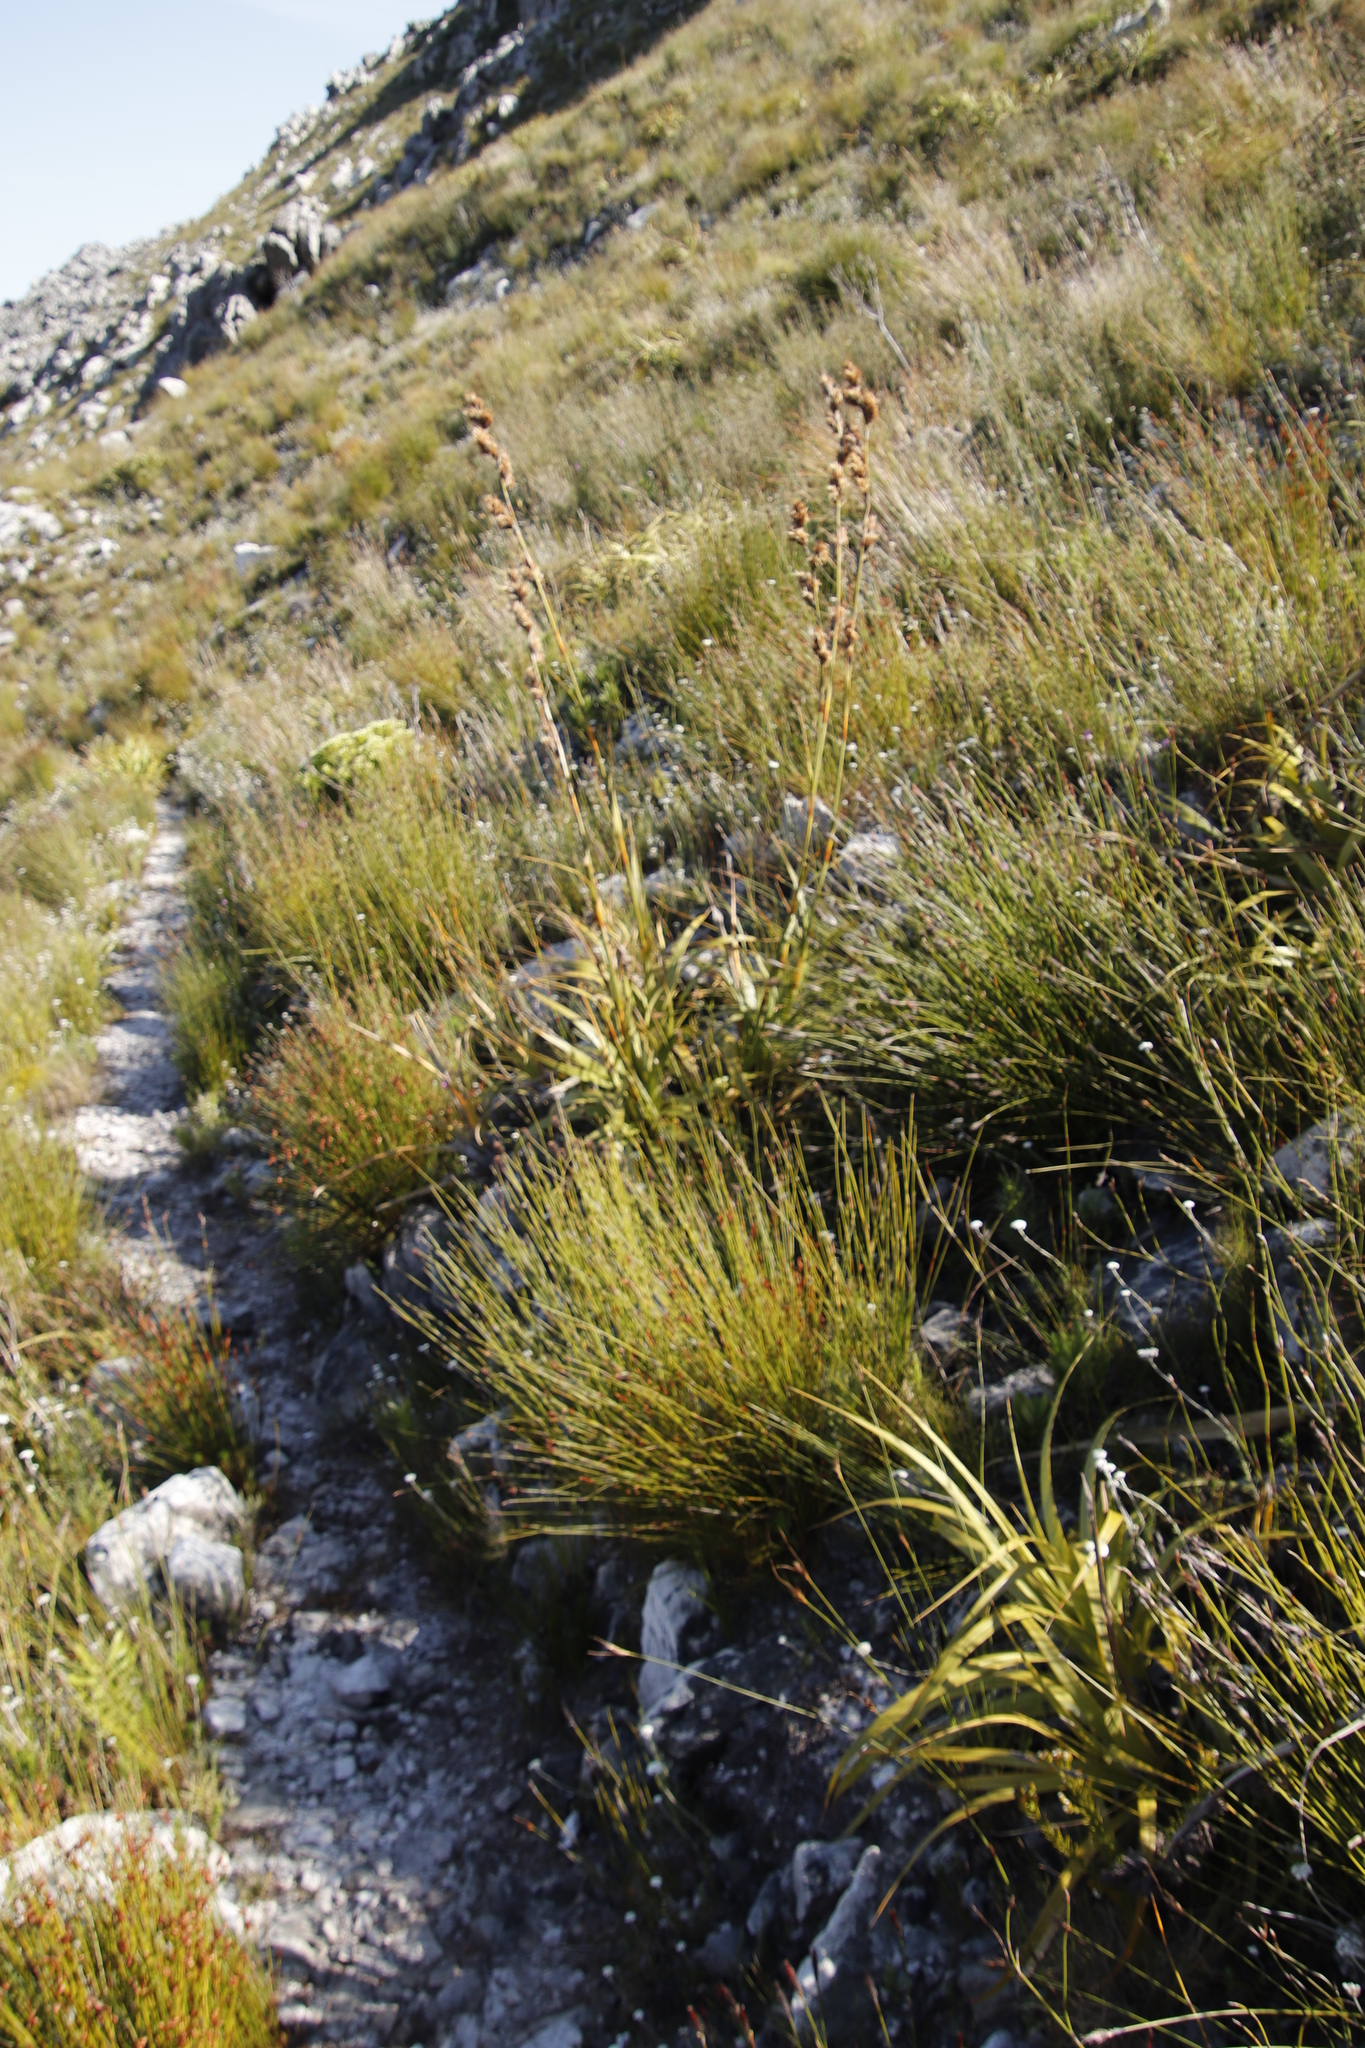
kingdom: Plantae
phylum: Tracheophyta
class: Liliopsida
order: Poales
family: Cyperaceae
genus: Tetraria
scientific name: Tetraria thermalis
